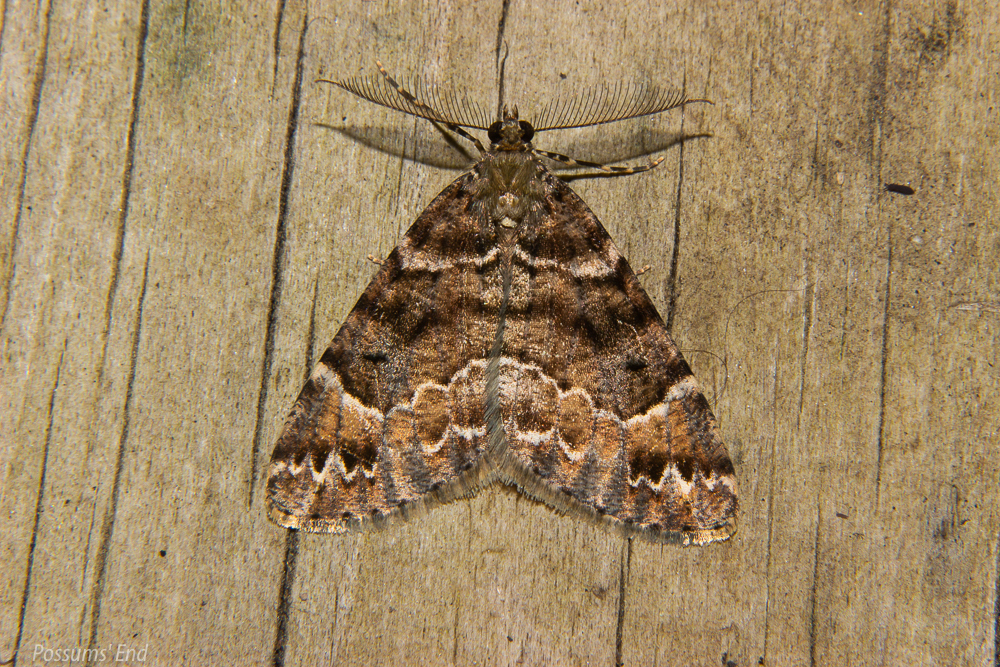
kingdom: Animalia
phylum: Arthropoda
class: Insecta
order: Lepidoptera
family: Geometridae
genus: Pseudocoremia
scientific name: Pseudocoremia productata
